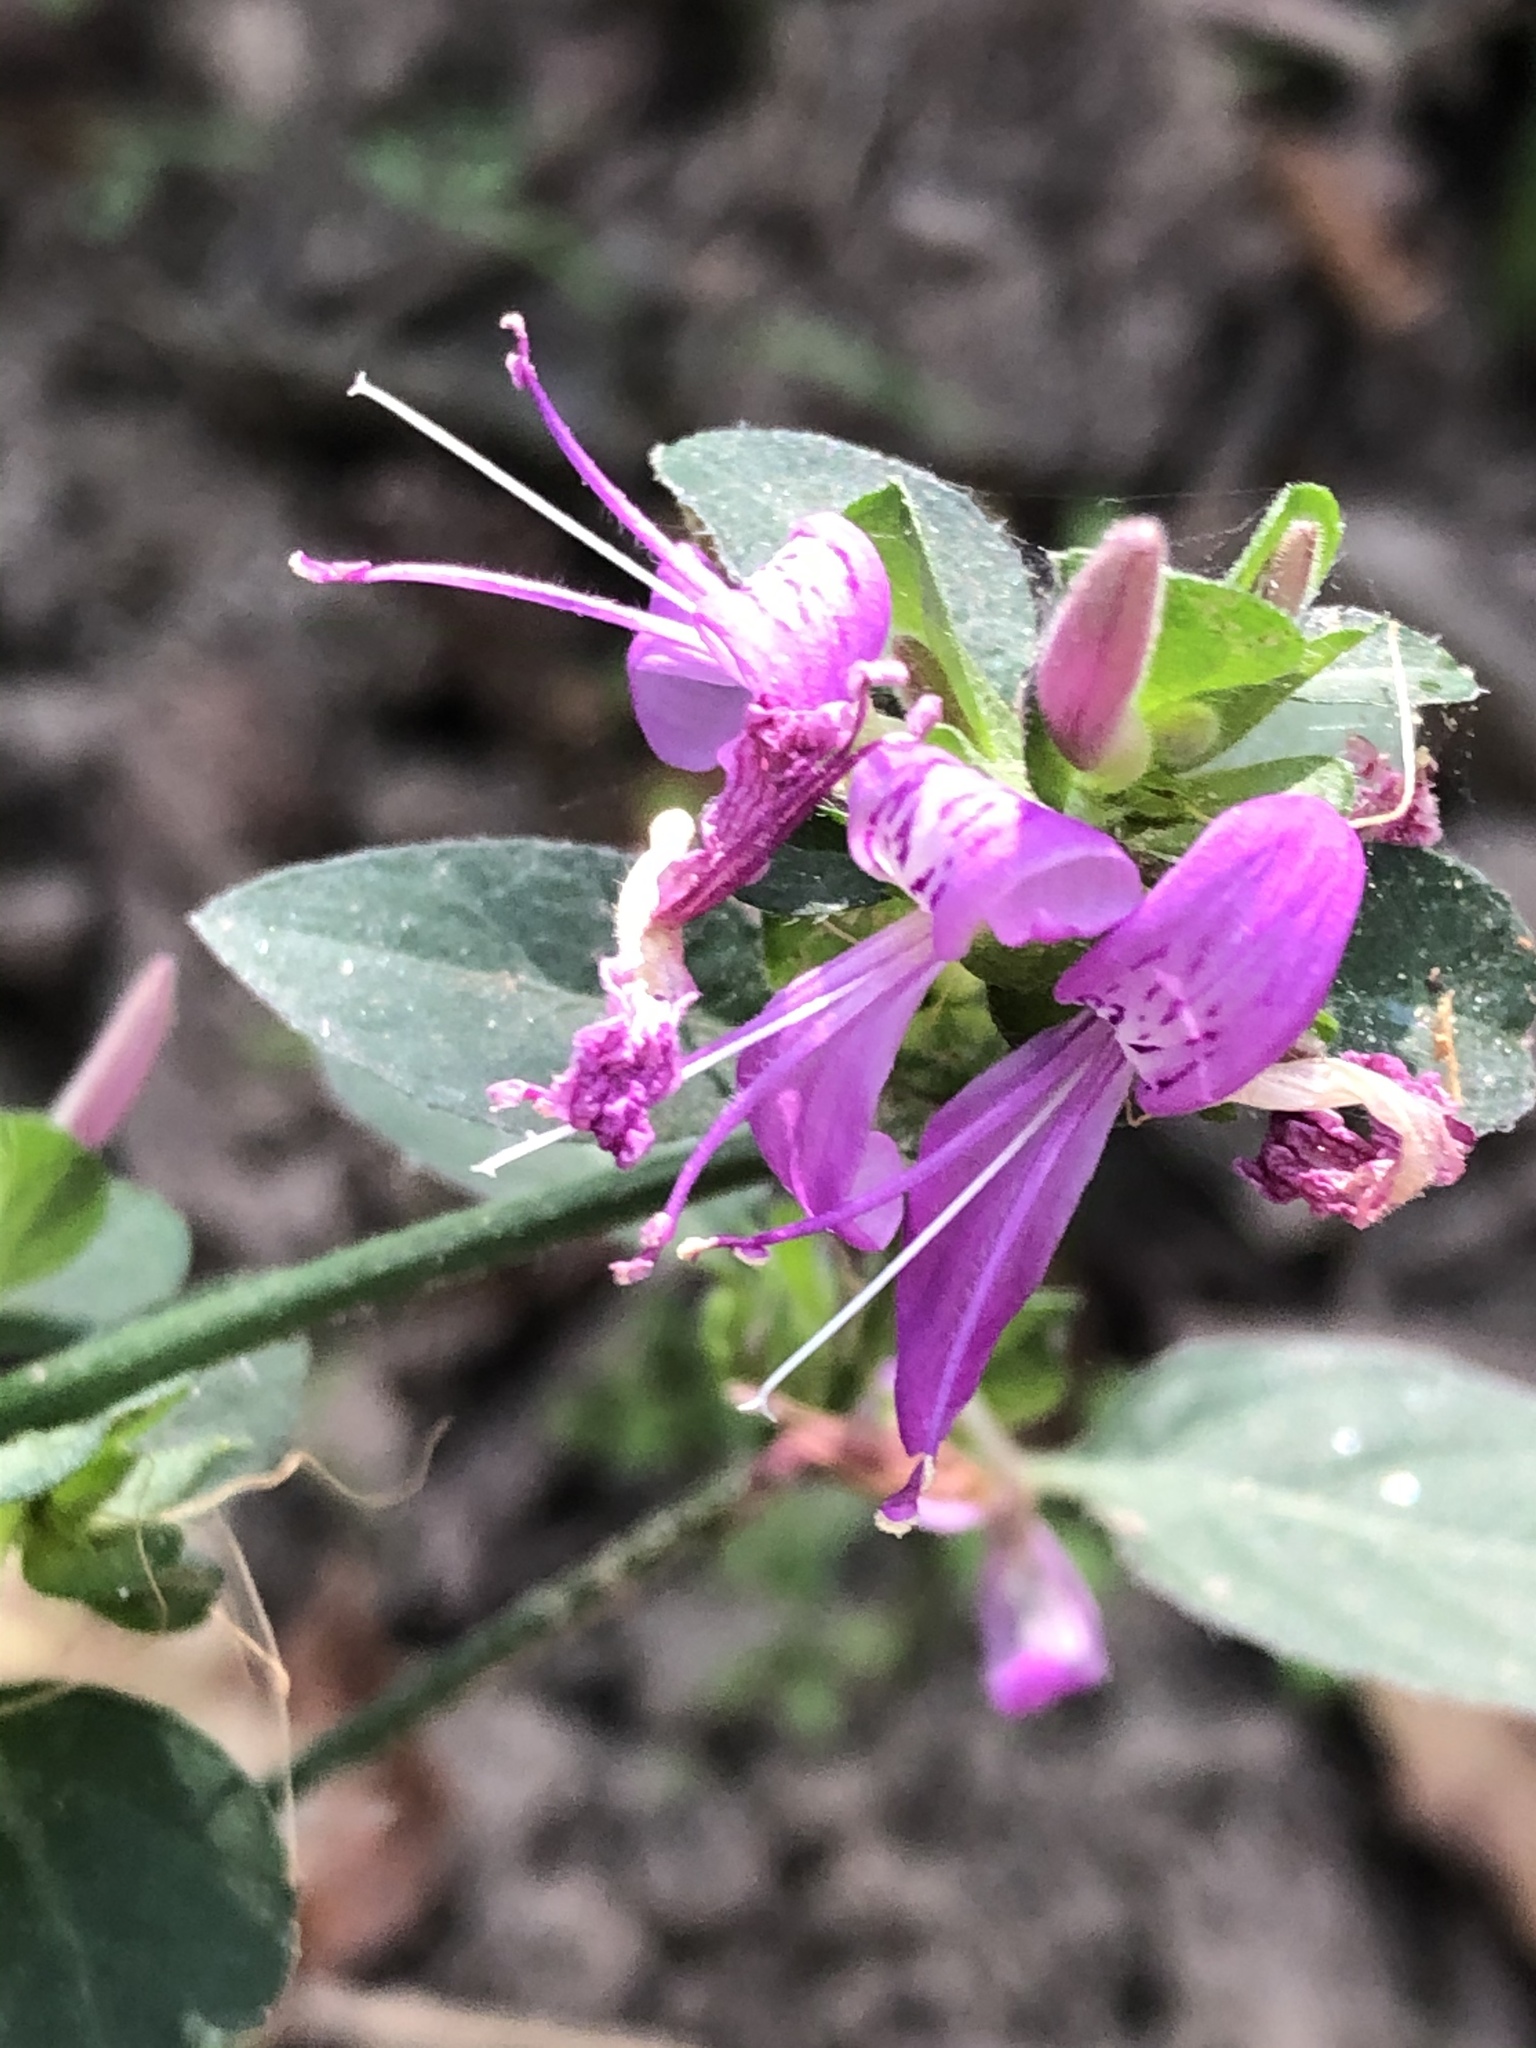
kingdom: Plantae
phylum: Tracheophyta
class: Magnoliopsida
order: Lamiales
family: Acanthaceae
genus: Dicliptera
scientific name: Dicliptera brachiata
